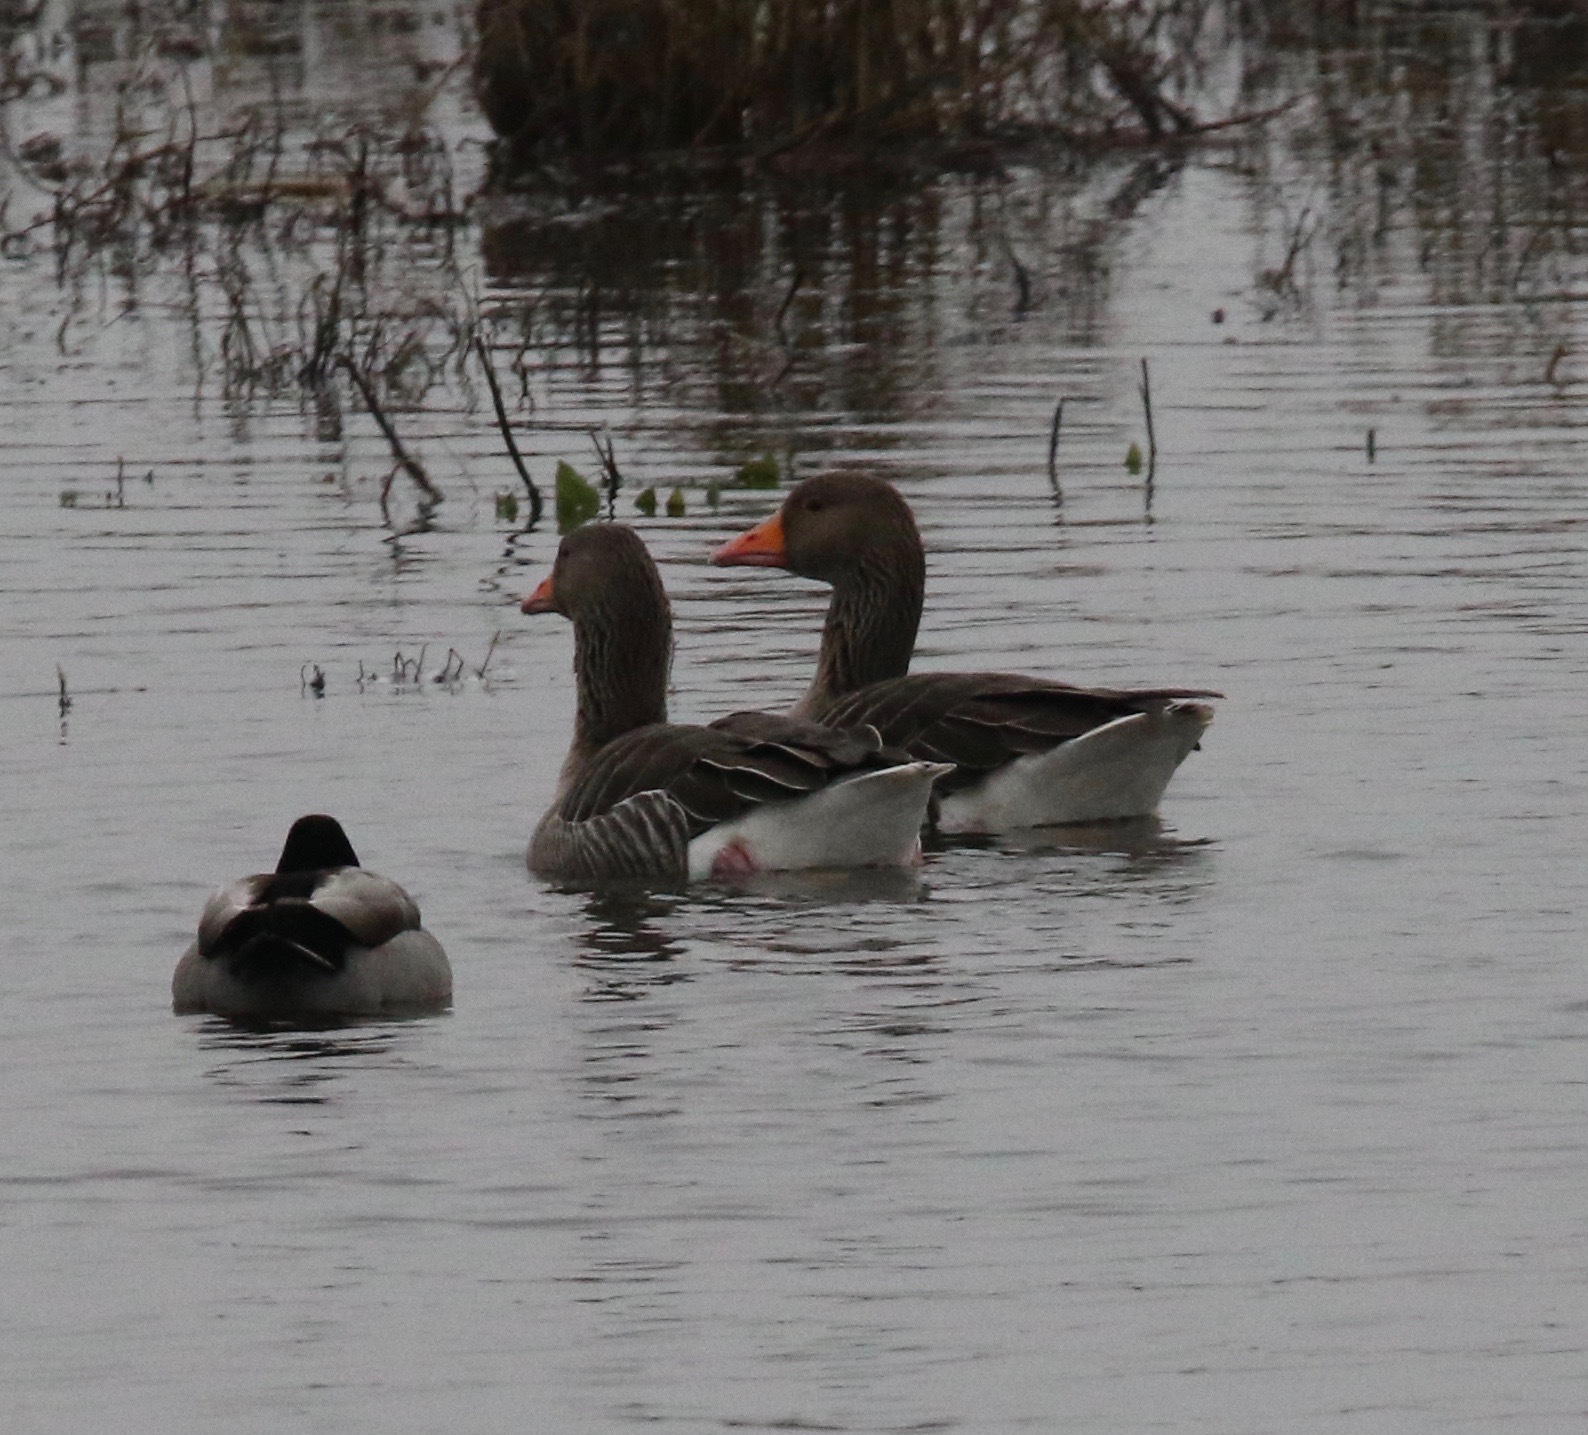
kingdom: Animalia
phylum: Chordata
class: Aves
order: Anseriformes
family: Anatidae
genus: Anser
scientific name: Anser anser
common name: Greylag goose
